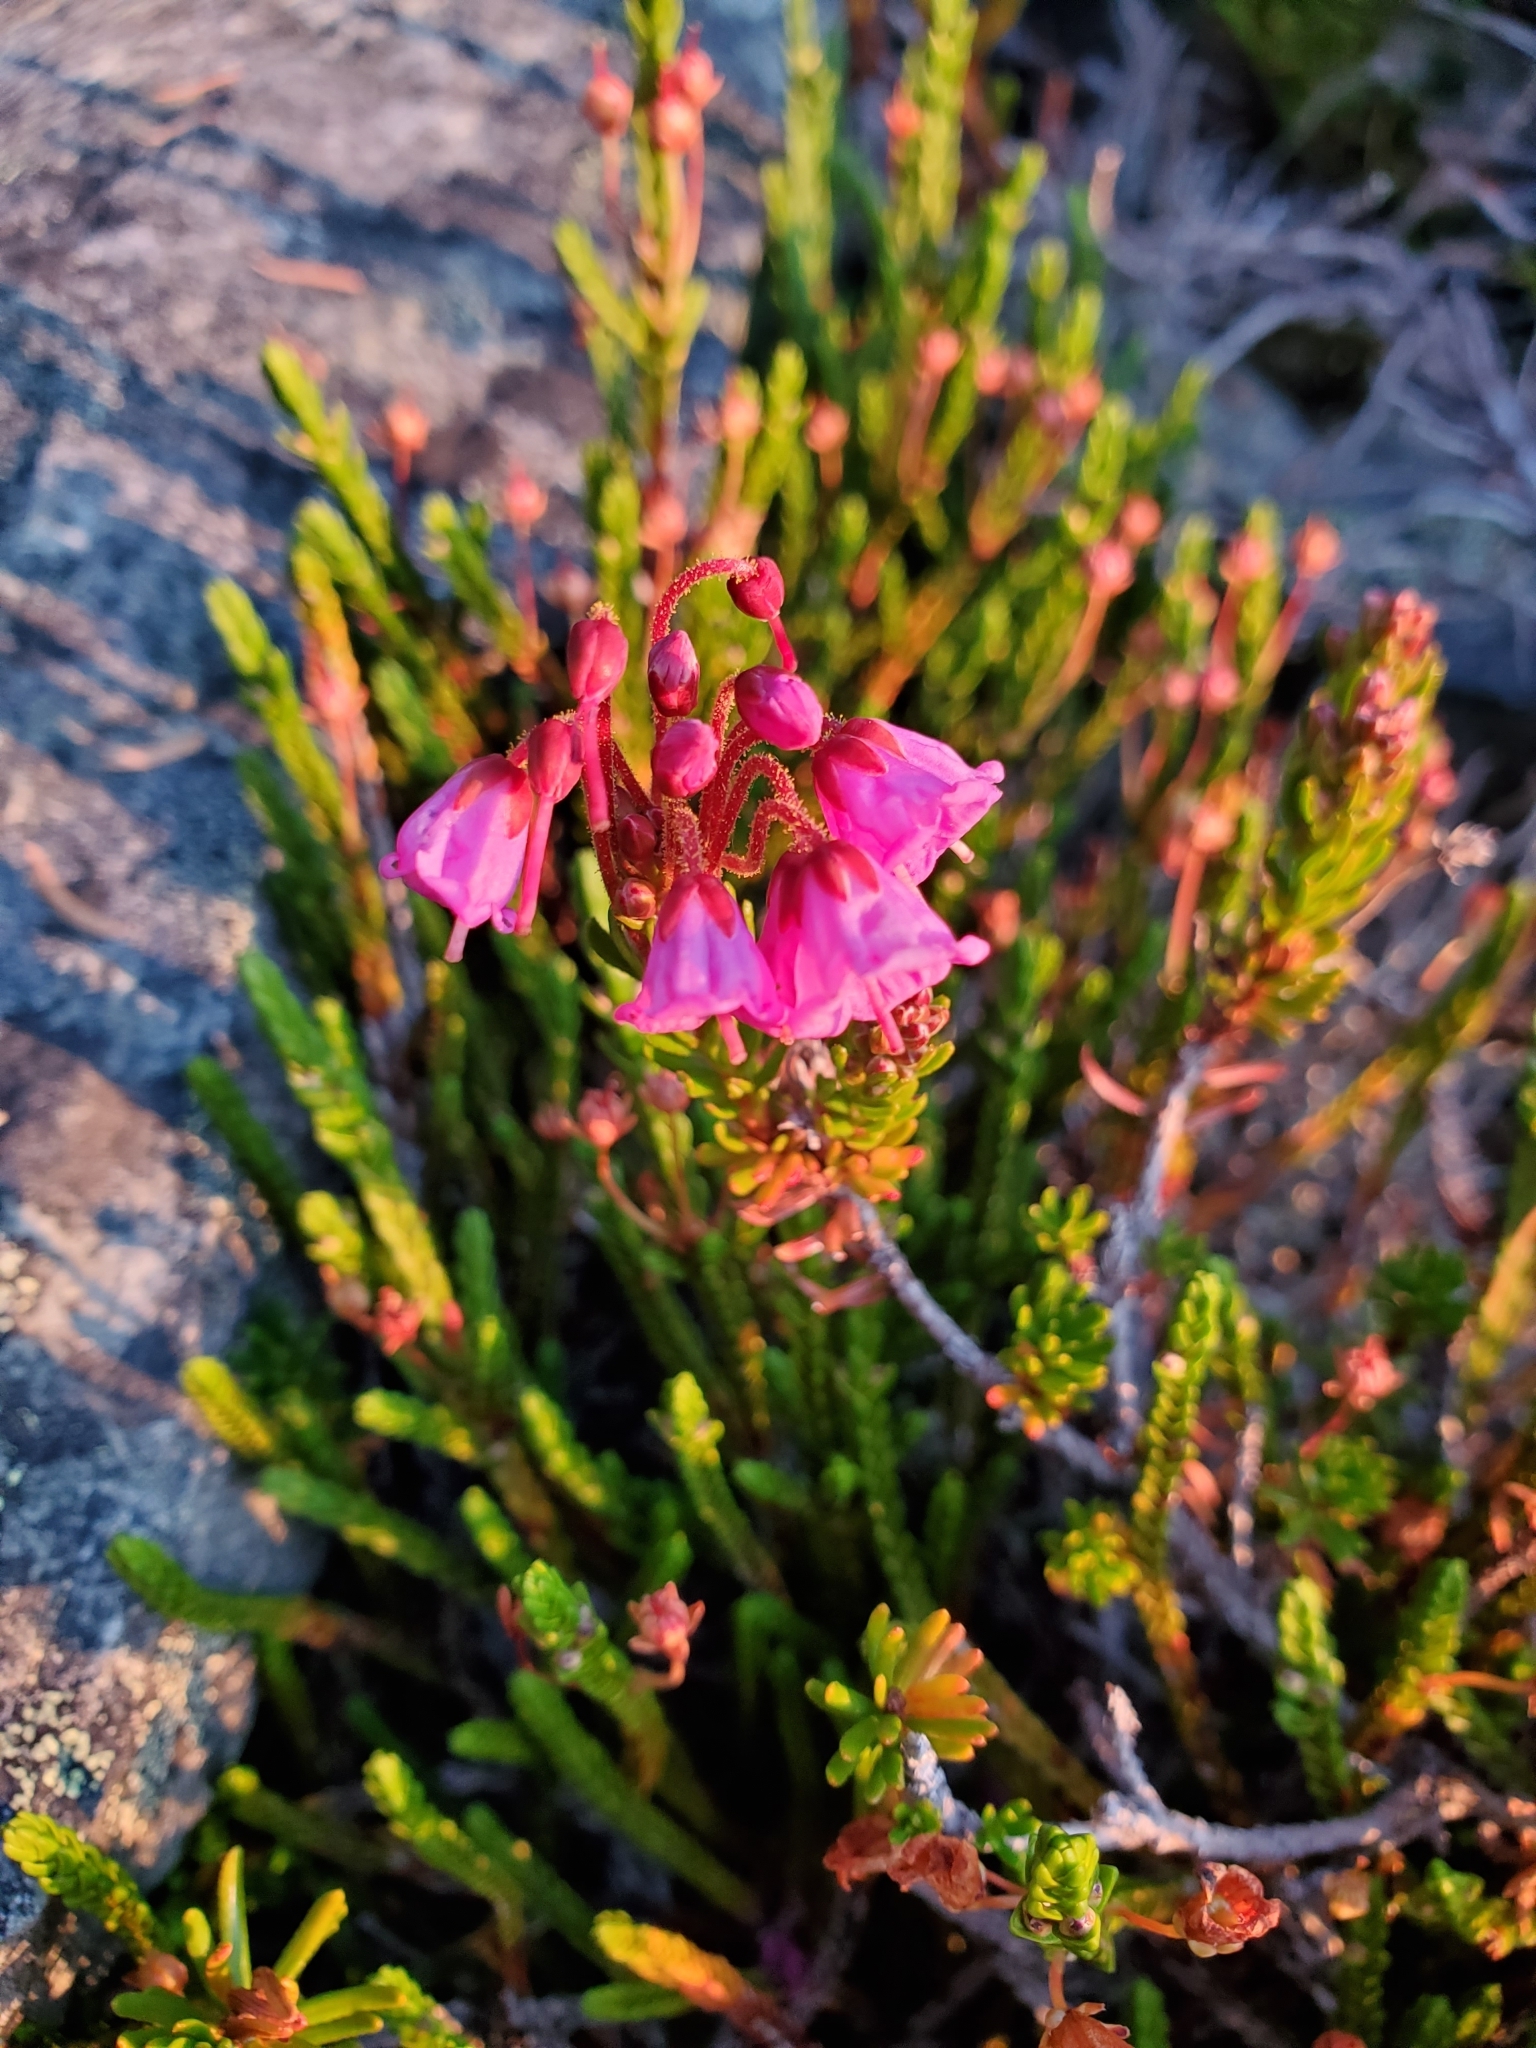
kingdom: Plantae
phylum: Tracheophyta
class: Magnoliopsida
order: Ericales
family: Ericaceae
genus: Phyllodoce
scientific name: Phyllodoce empetriformis
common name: Pink mountain heather
